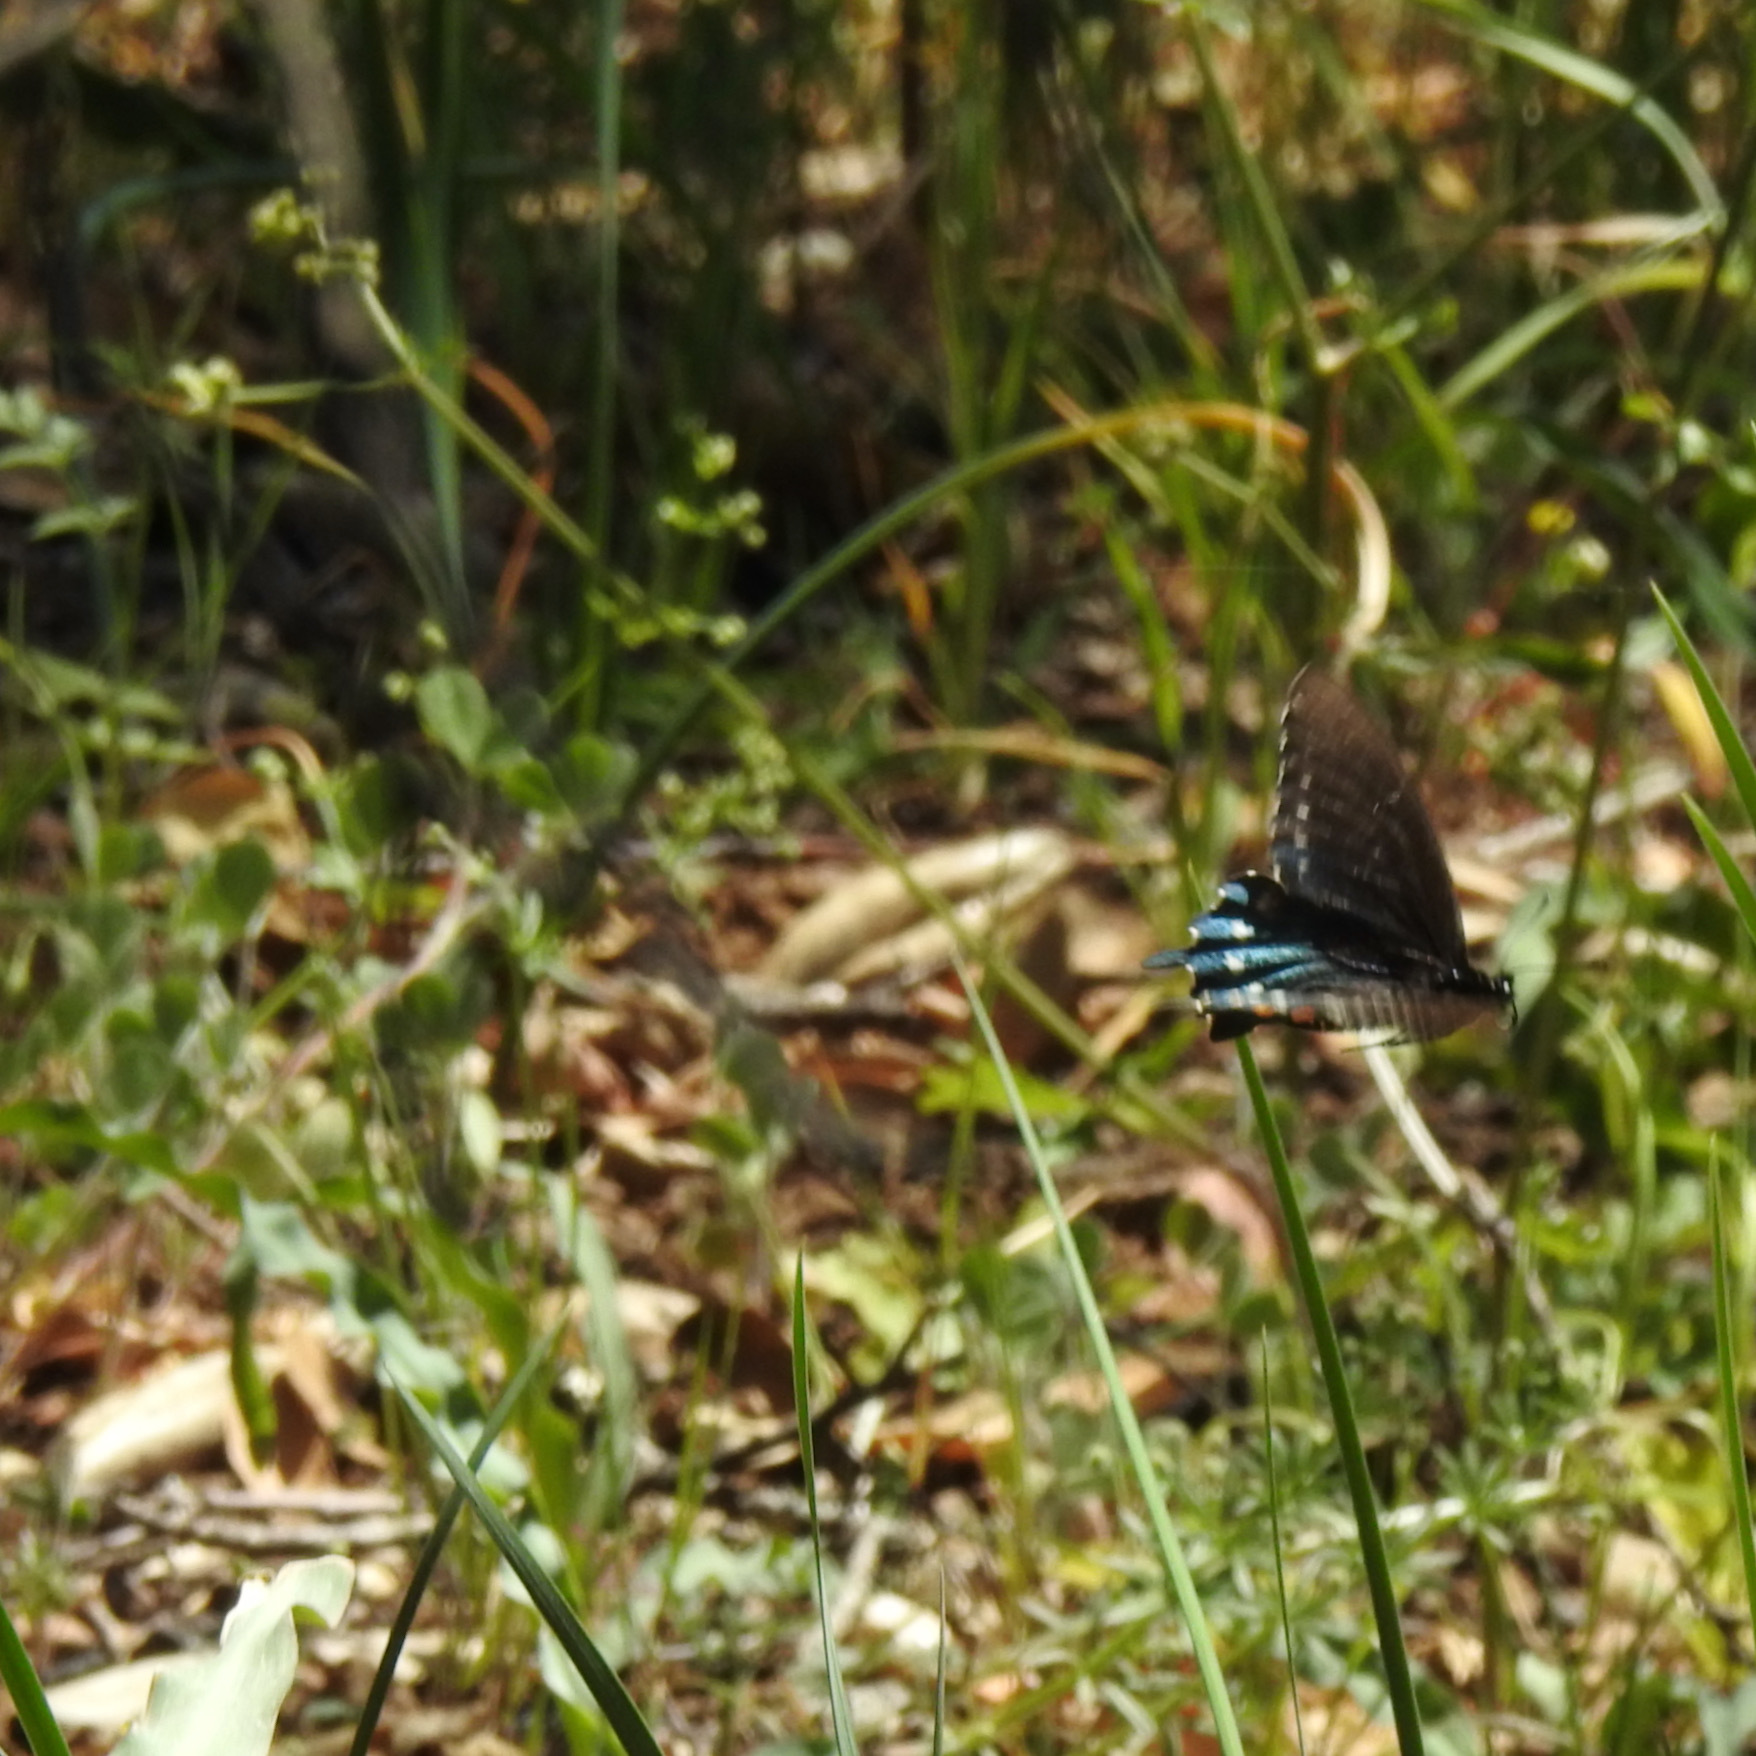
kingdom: Animalia
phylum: Arthropoda
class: Insecta
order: Lepidoptera
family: Papilionidae
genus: Battus
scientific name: Battus philenor
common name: Pipevine swallowtail
